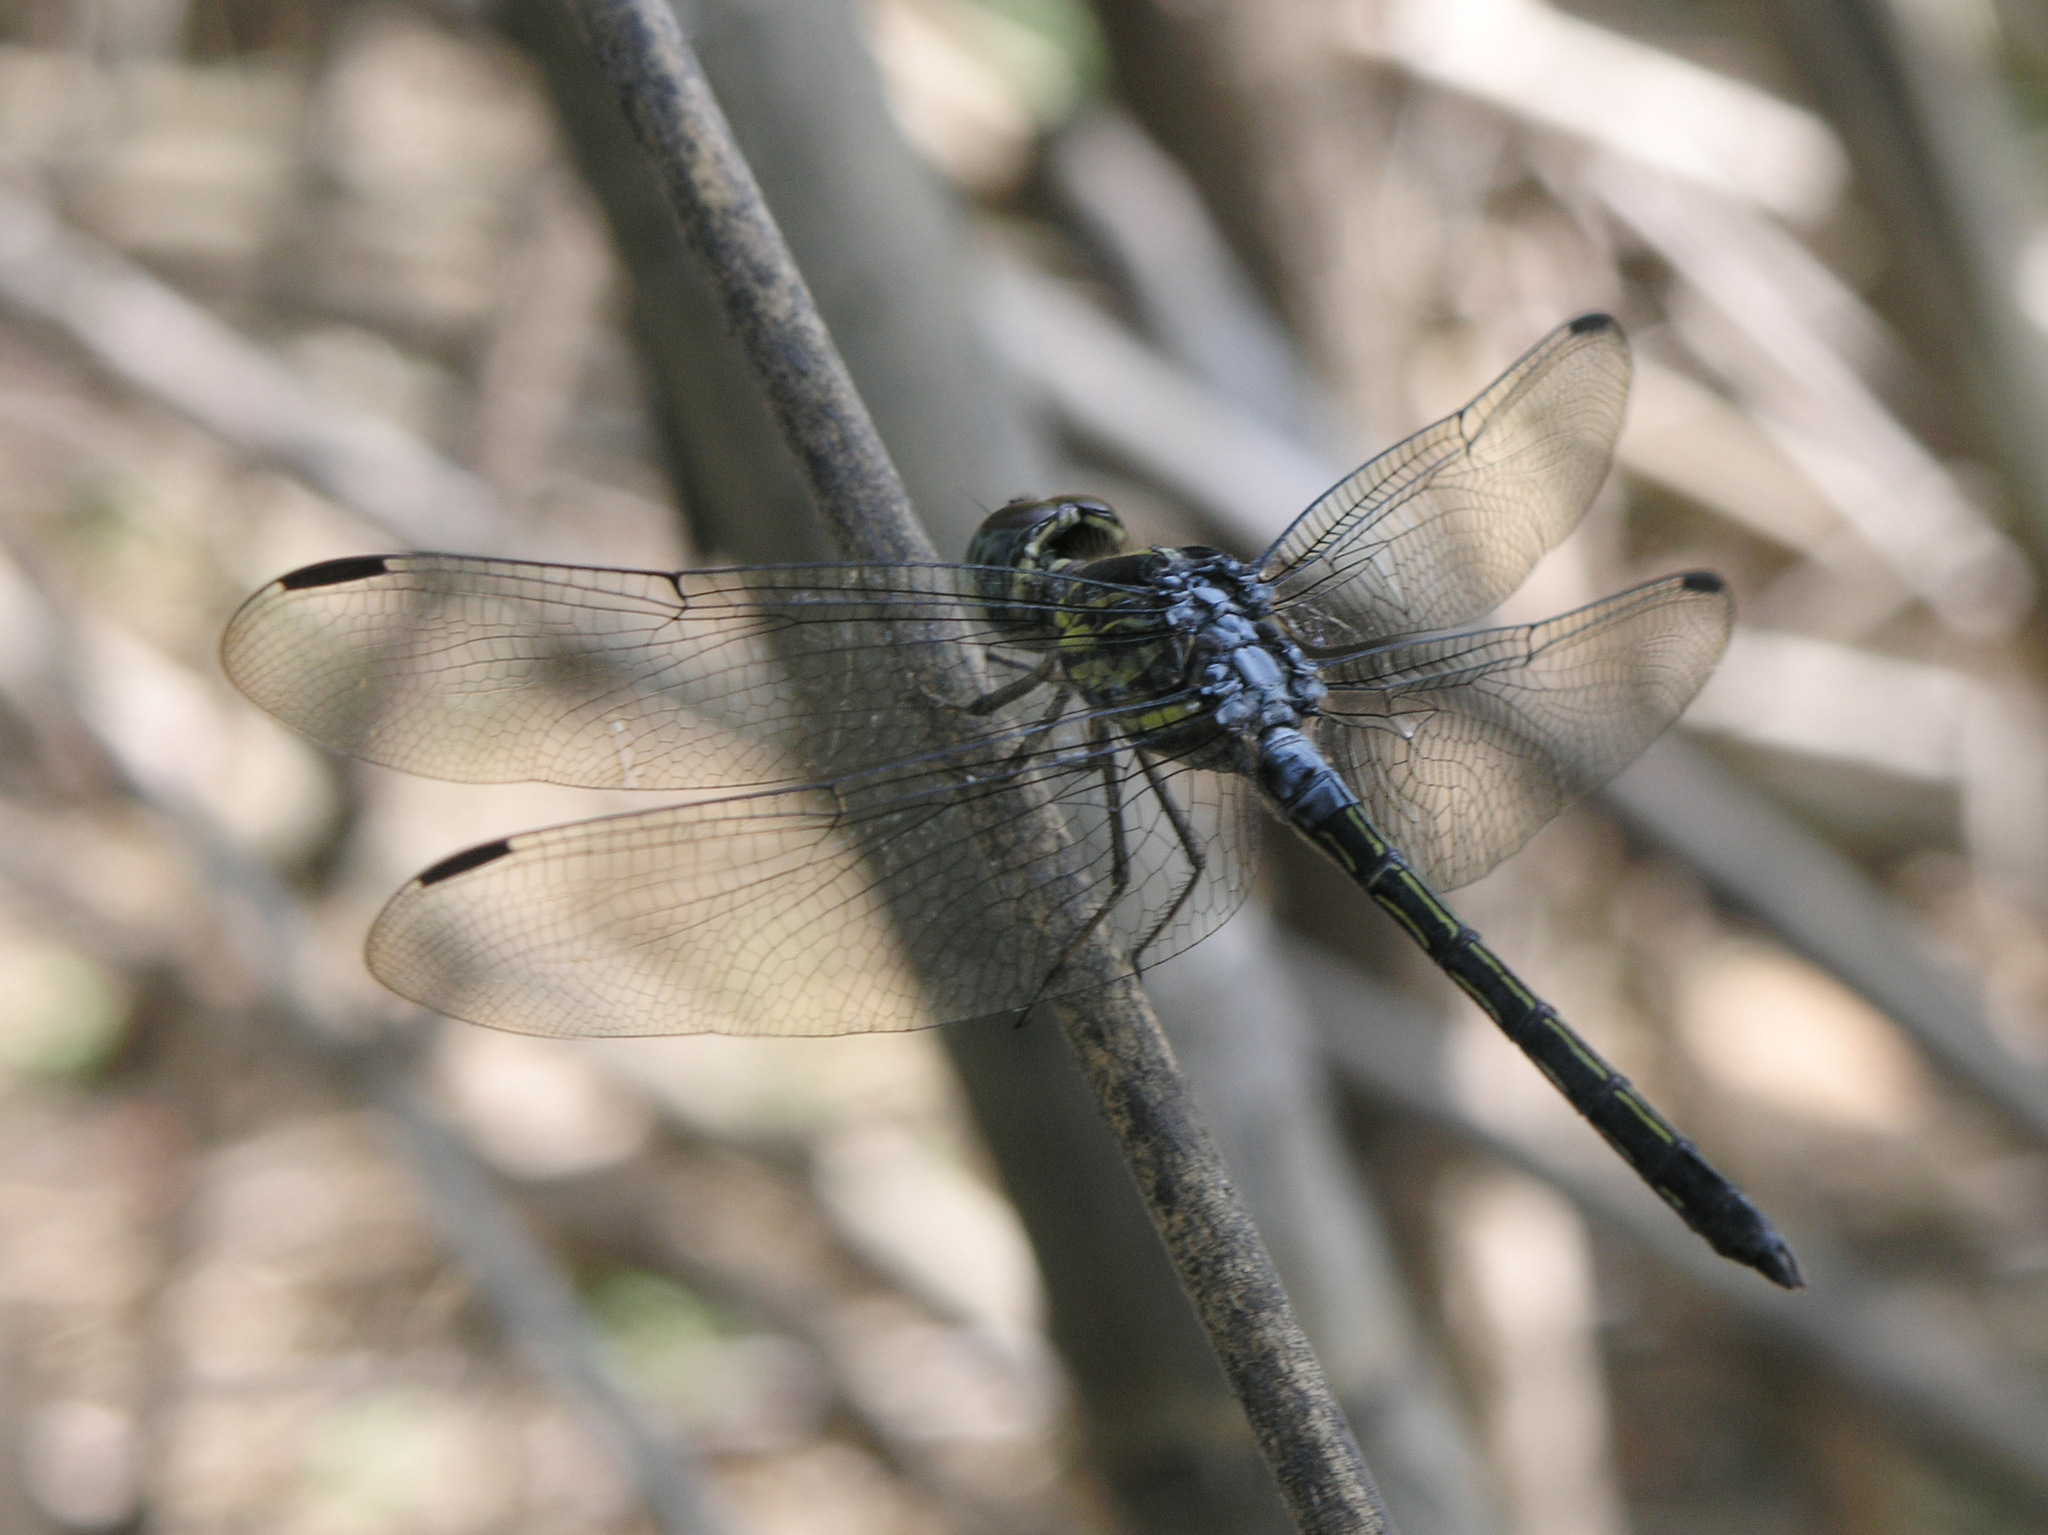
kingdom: Animalia
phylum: Arthropoda
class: Insecta
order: Odonata
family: Libellulidae
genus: Cratilla
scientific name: Cratilla lineata
